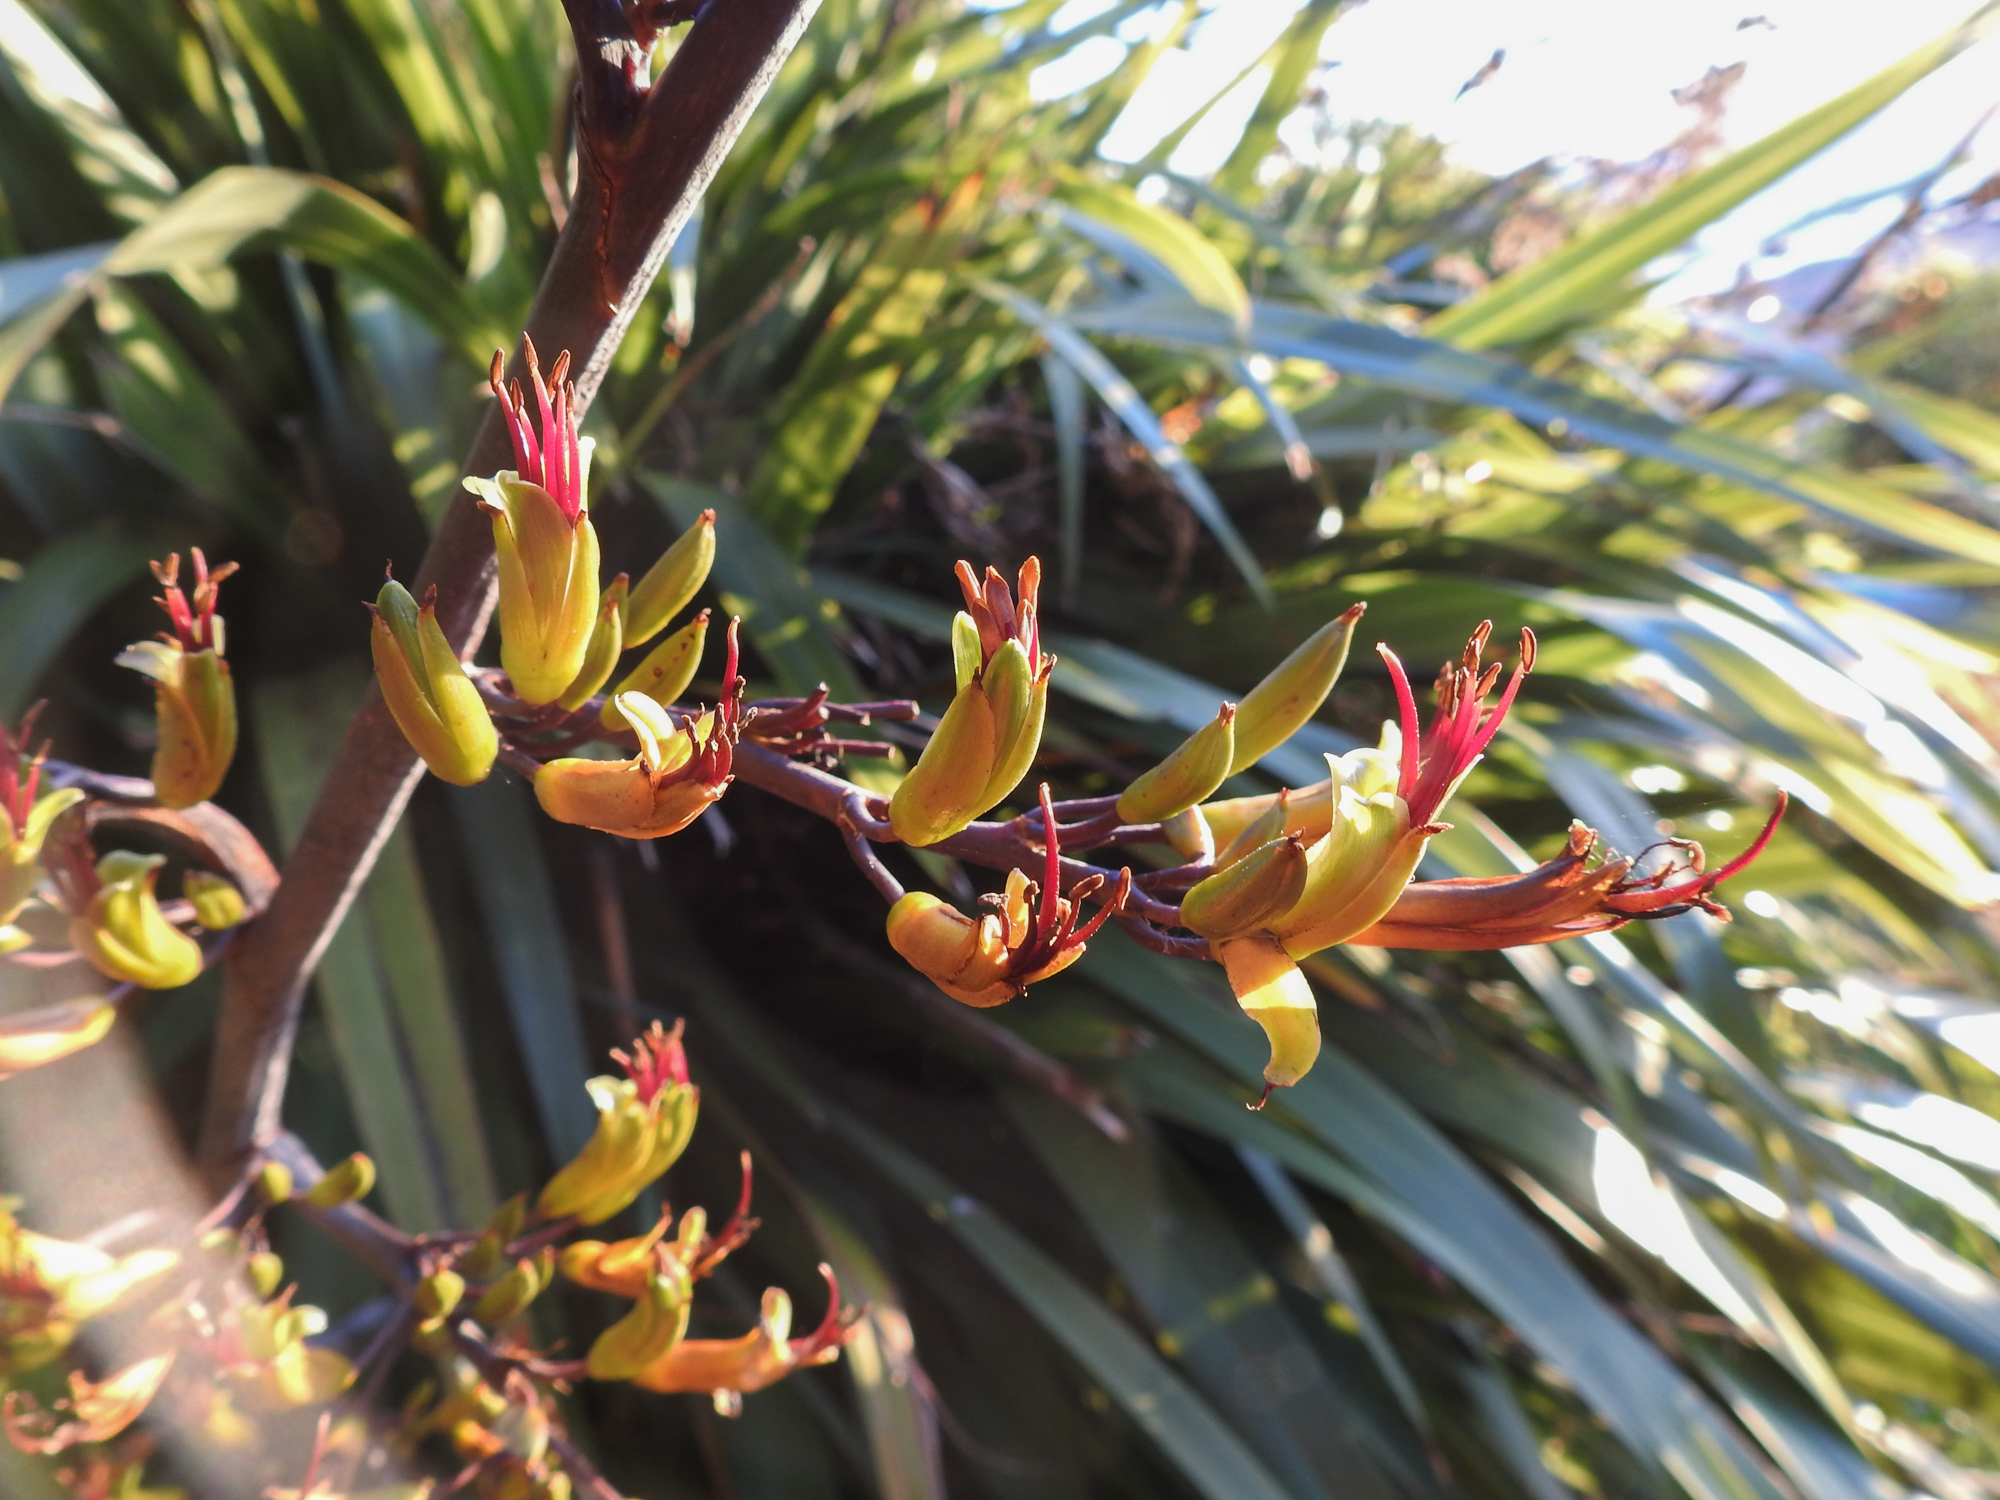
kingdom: Plantae
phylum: Tracheophyta
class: Liliopsida
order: Asparagales
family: Asphodelaceae
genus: Phormium
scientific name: Phormium colensoi
